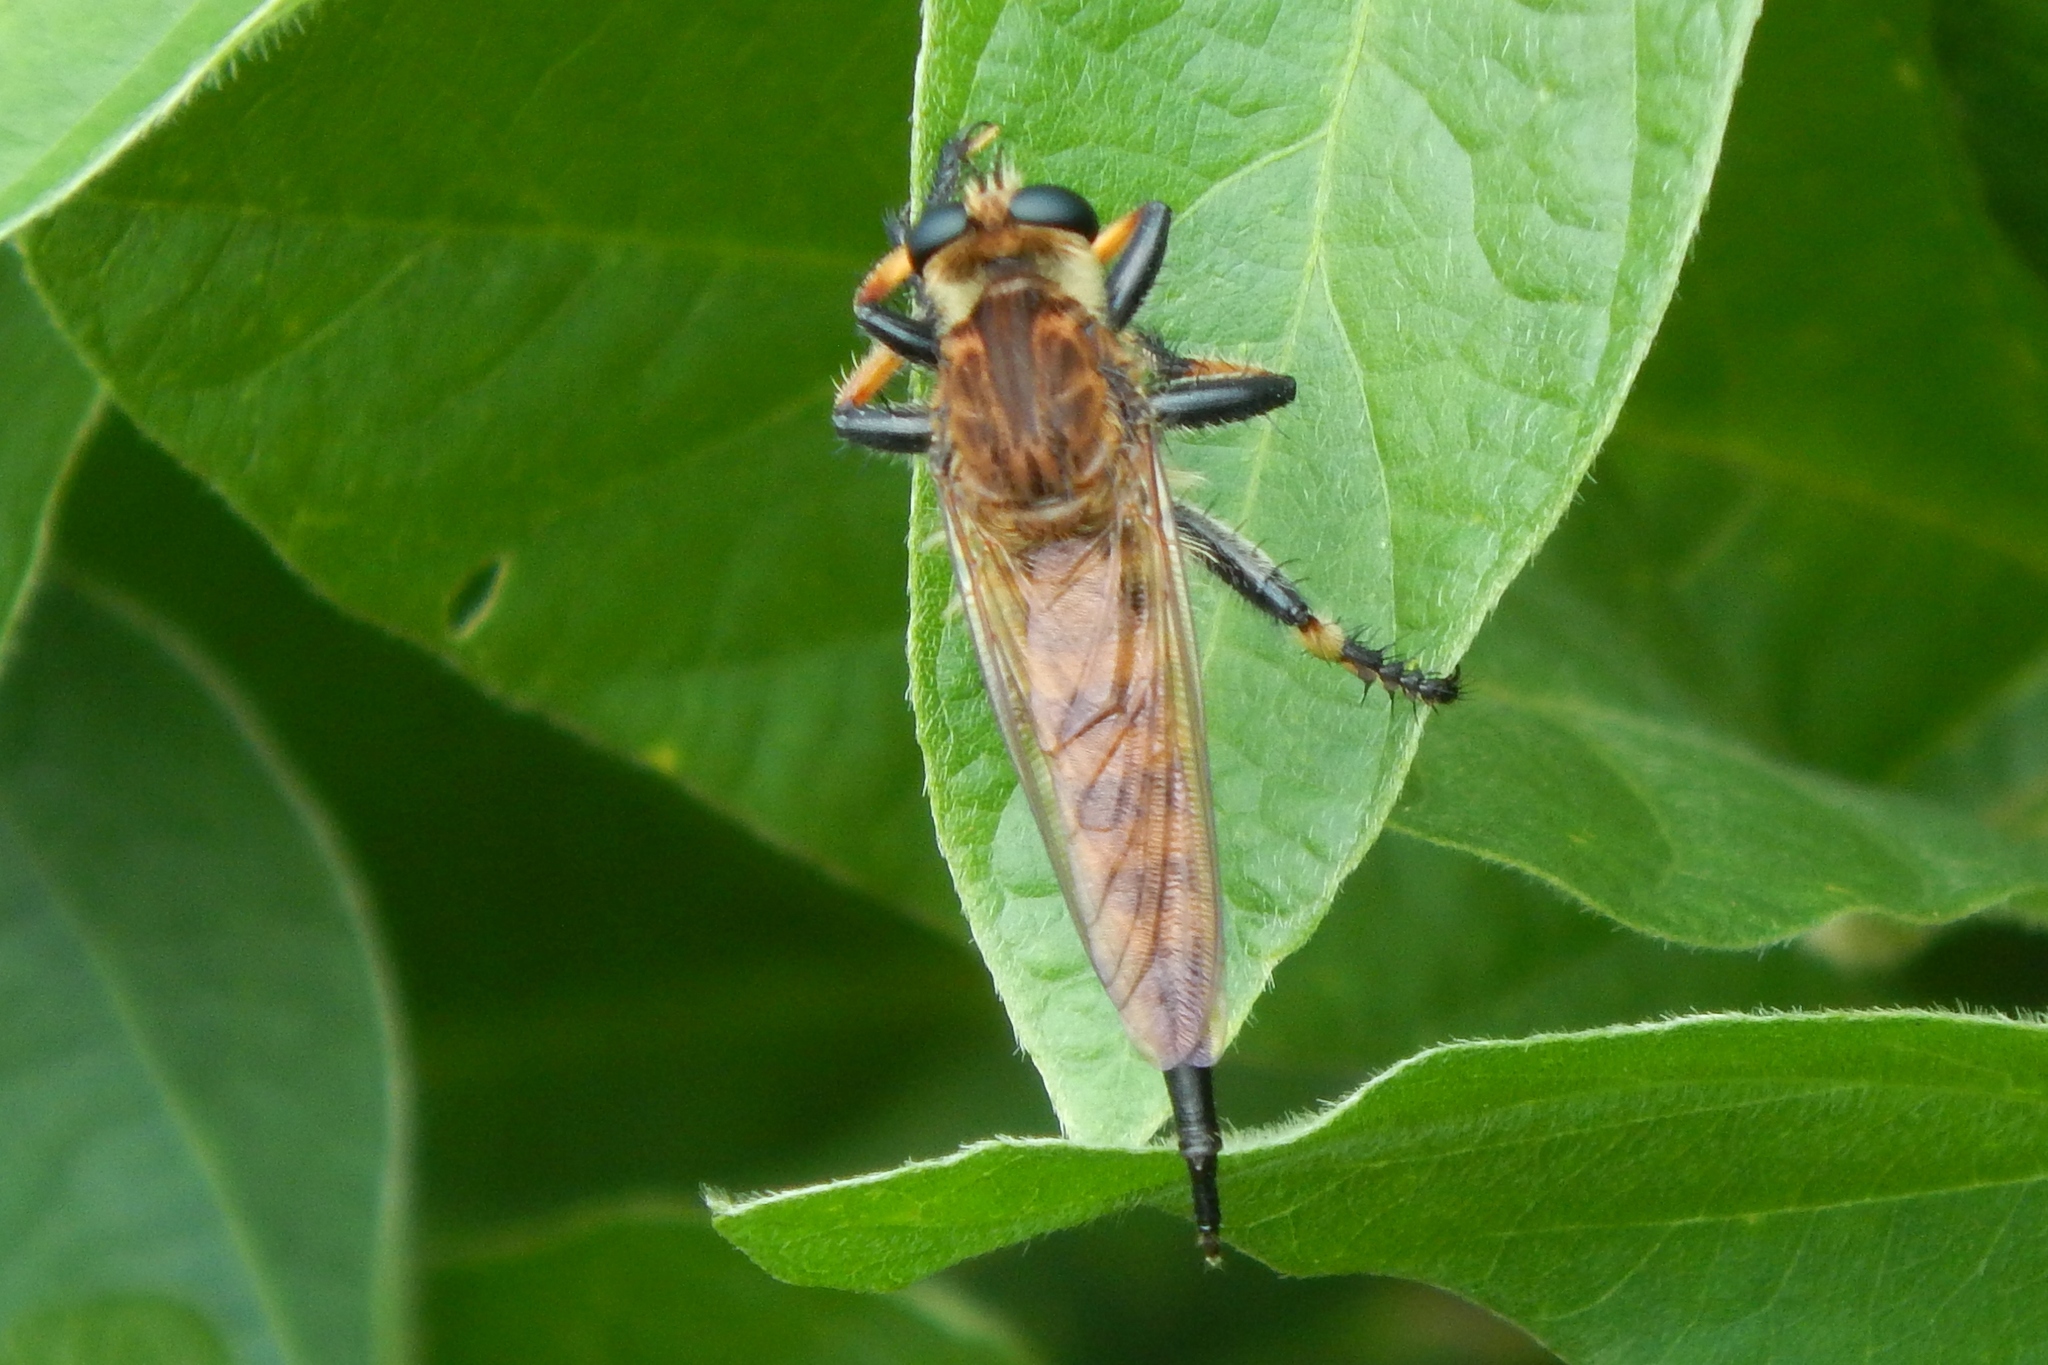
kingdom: Animalia
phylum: Arthropoda
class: Insecta
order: Diptera
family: Asilidae
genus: Promachus
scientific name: Promachus rufipes
